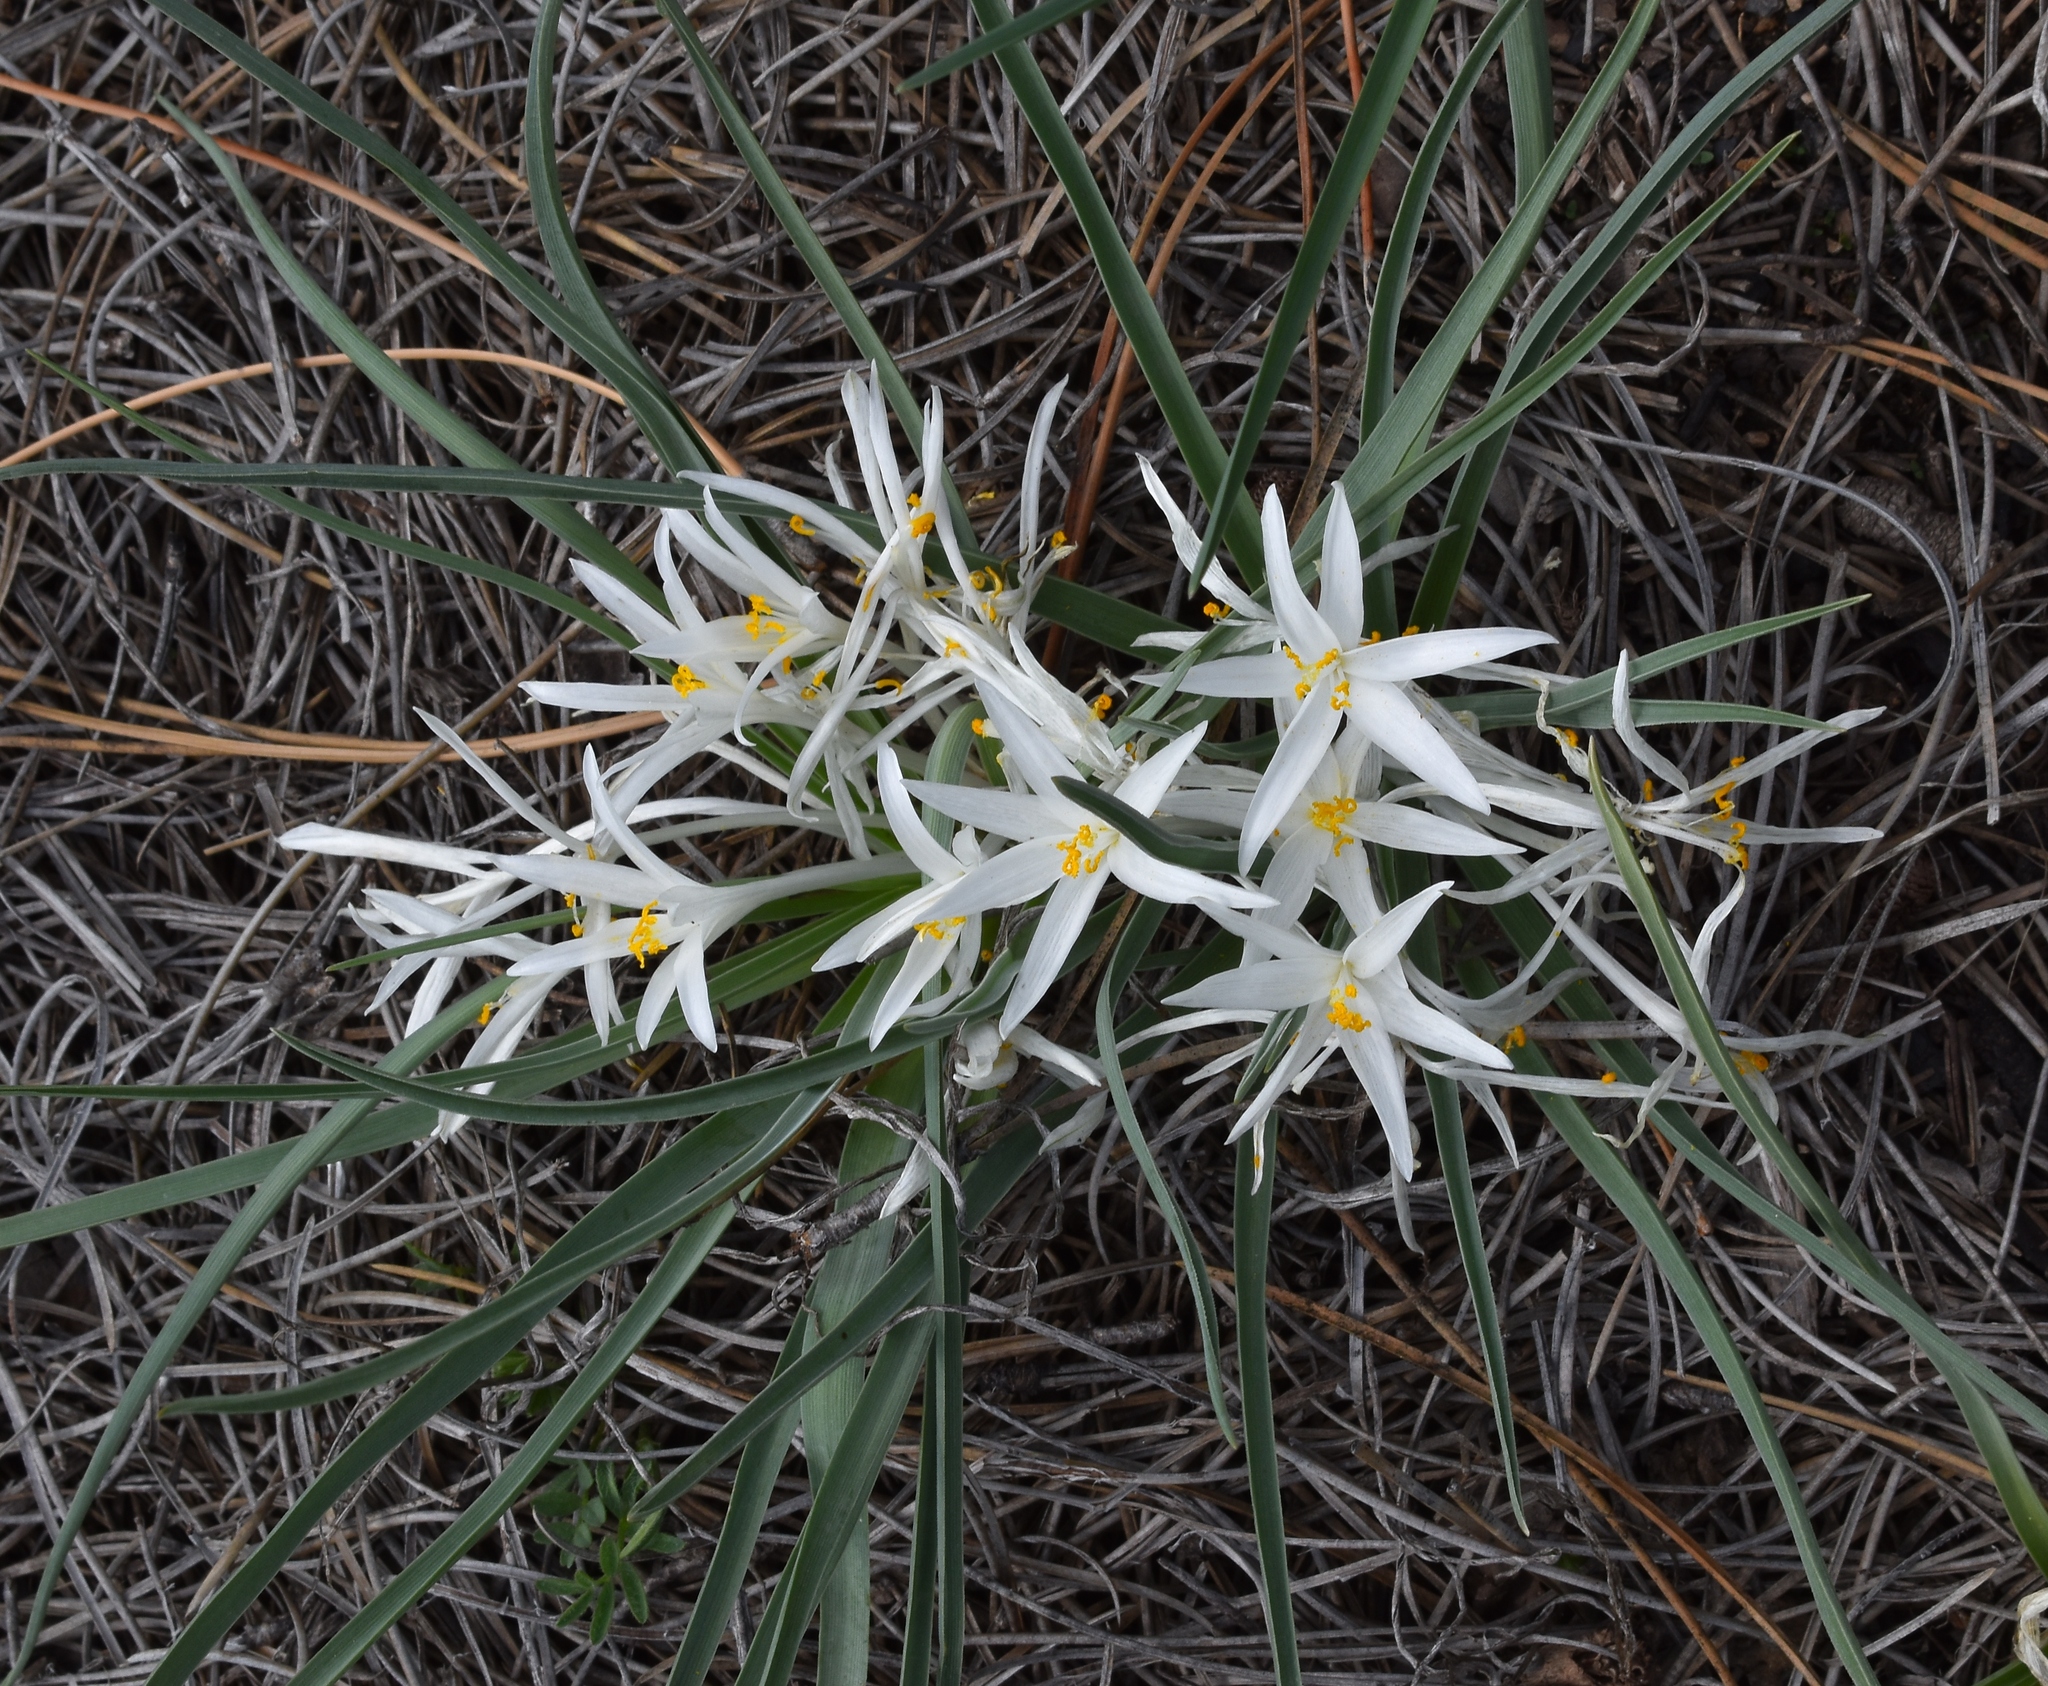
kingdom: Plantae
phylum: Tracheophyta
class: Liliopsida
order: Asparagales
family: Asparagaceae
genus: Leucocrinum
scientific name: Leucocrinum montanum
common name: Mountain-lily
